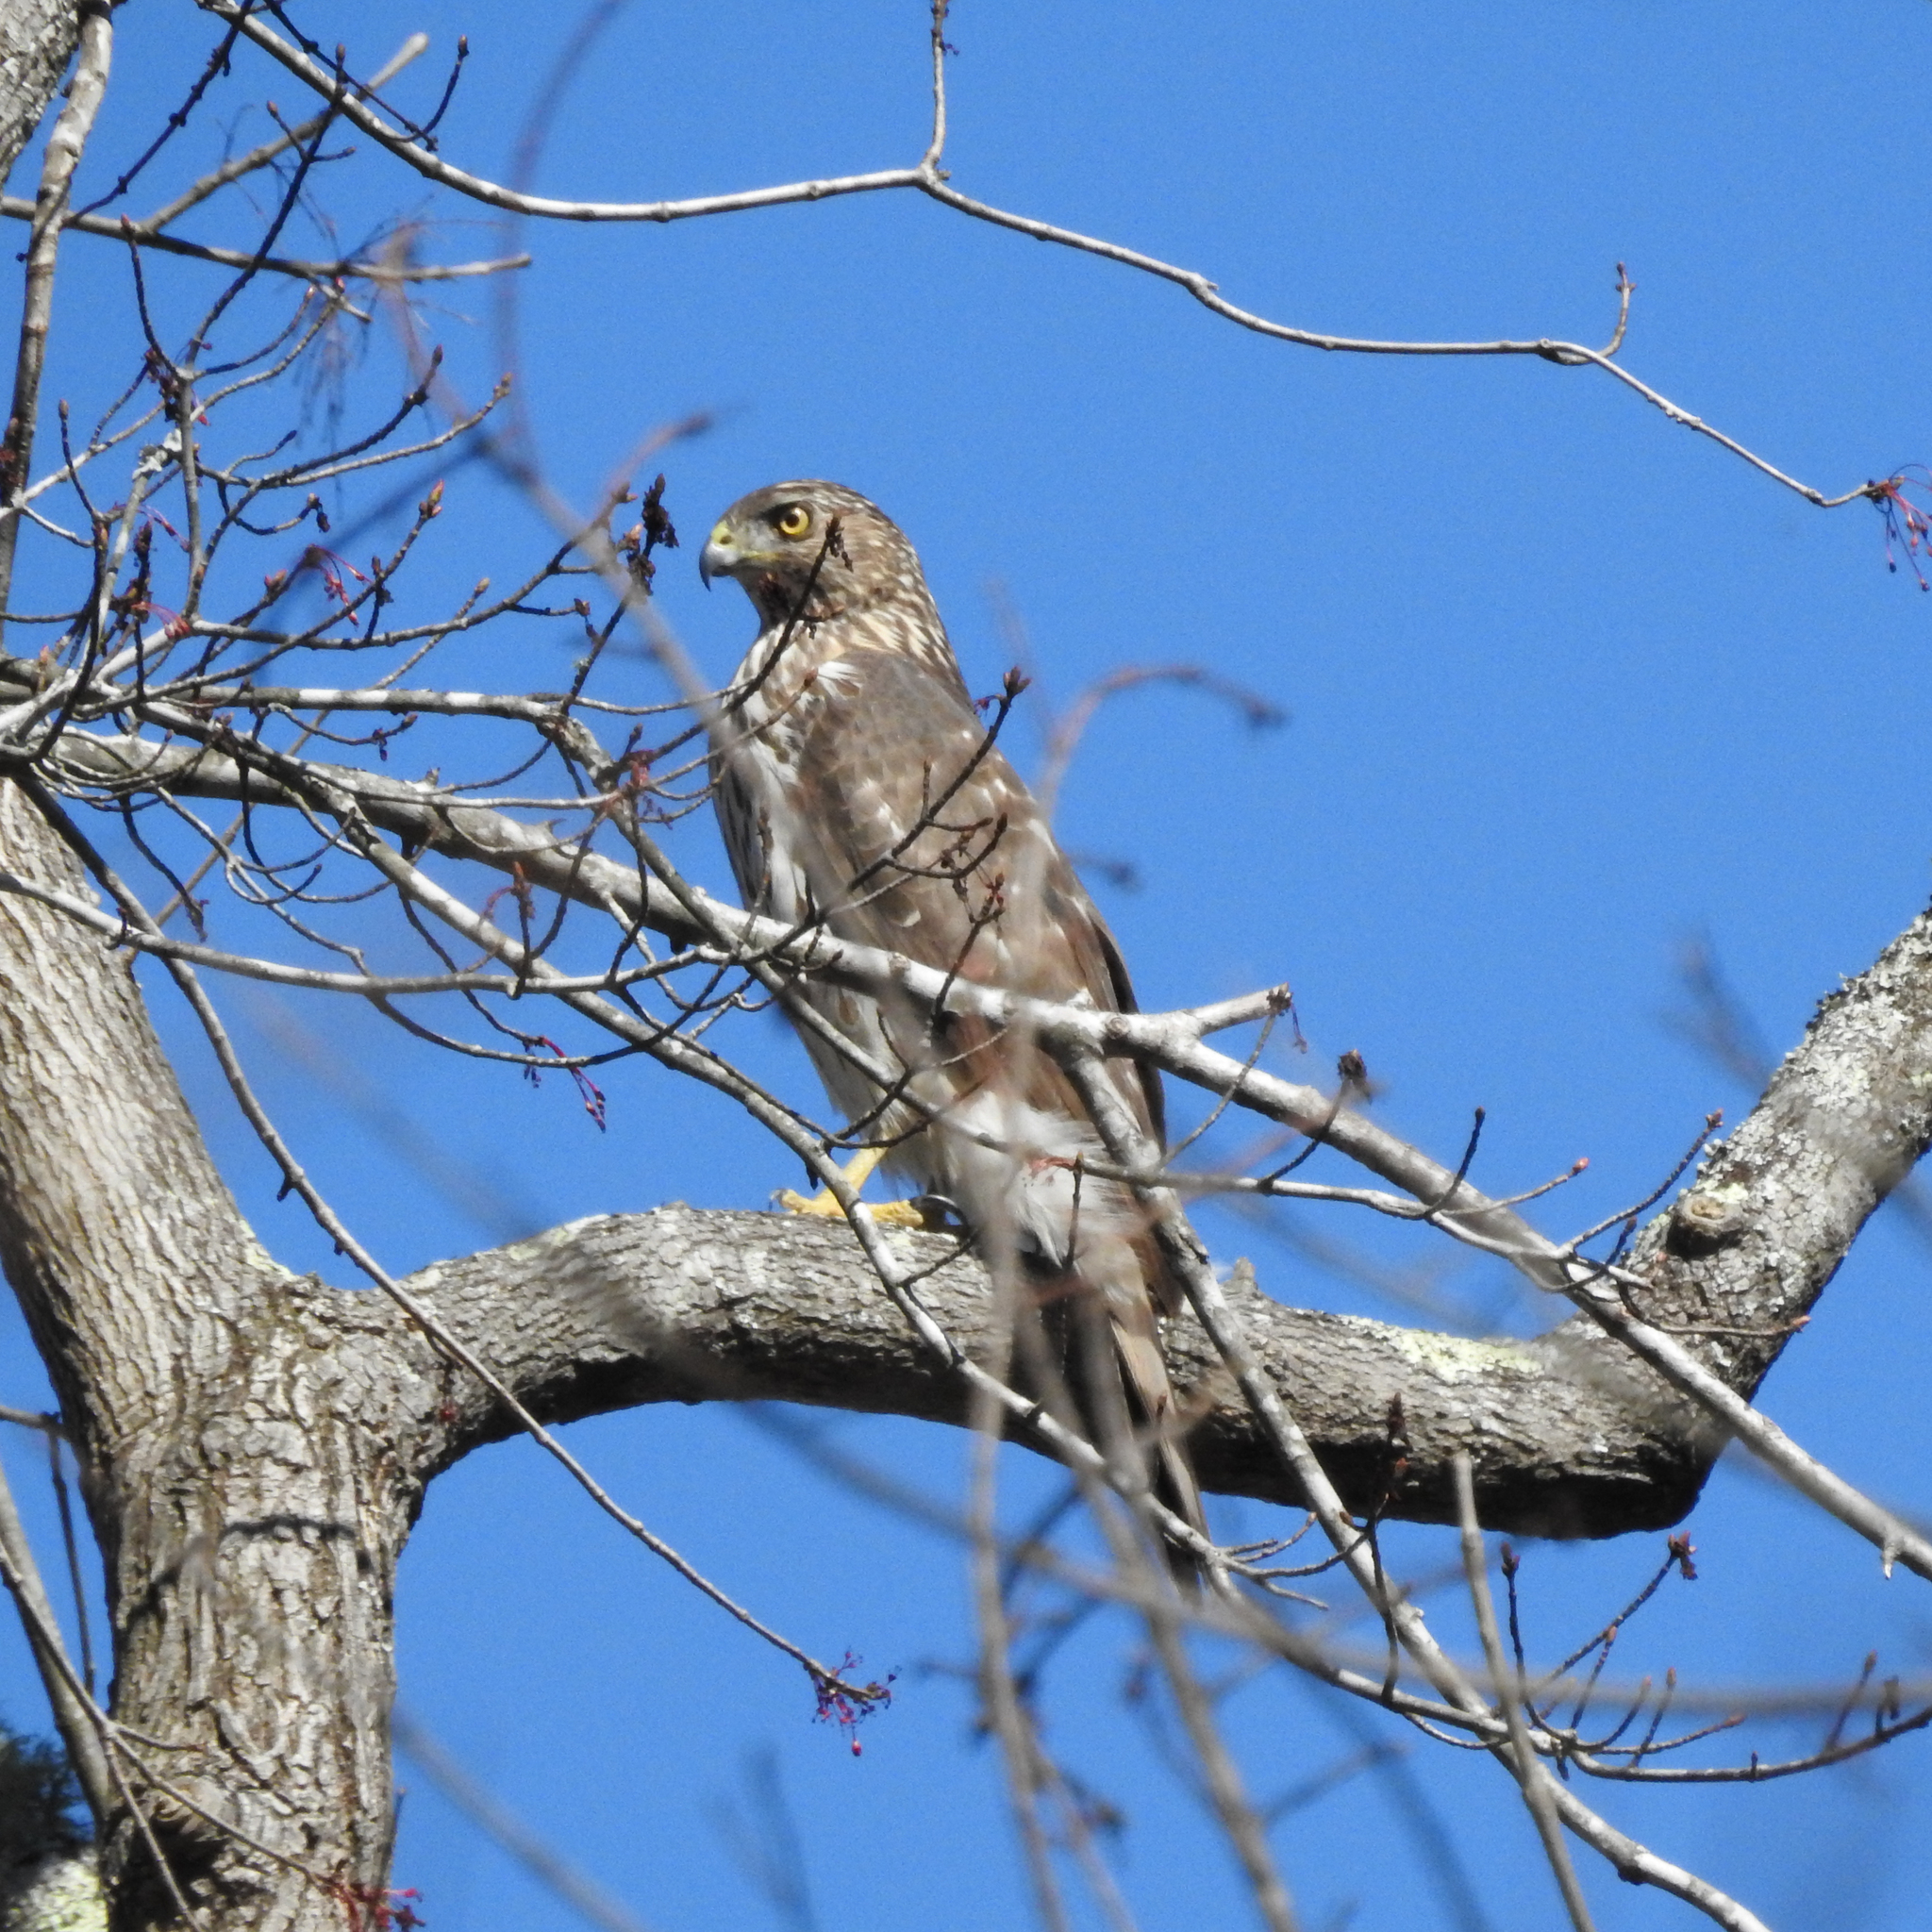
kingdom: Animalia
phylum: Chordata
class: Aves
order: Accipitriformes
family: Accipitridae
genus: Accipiter
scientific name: Accipiter cooperii
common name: Cooper's hawk
